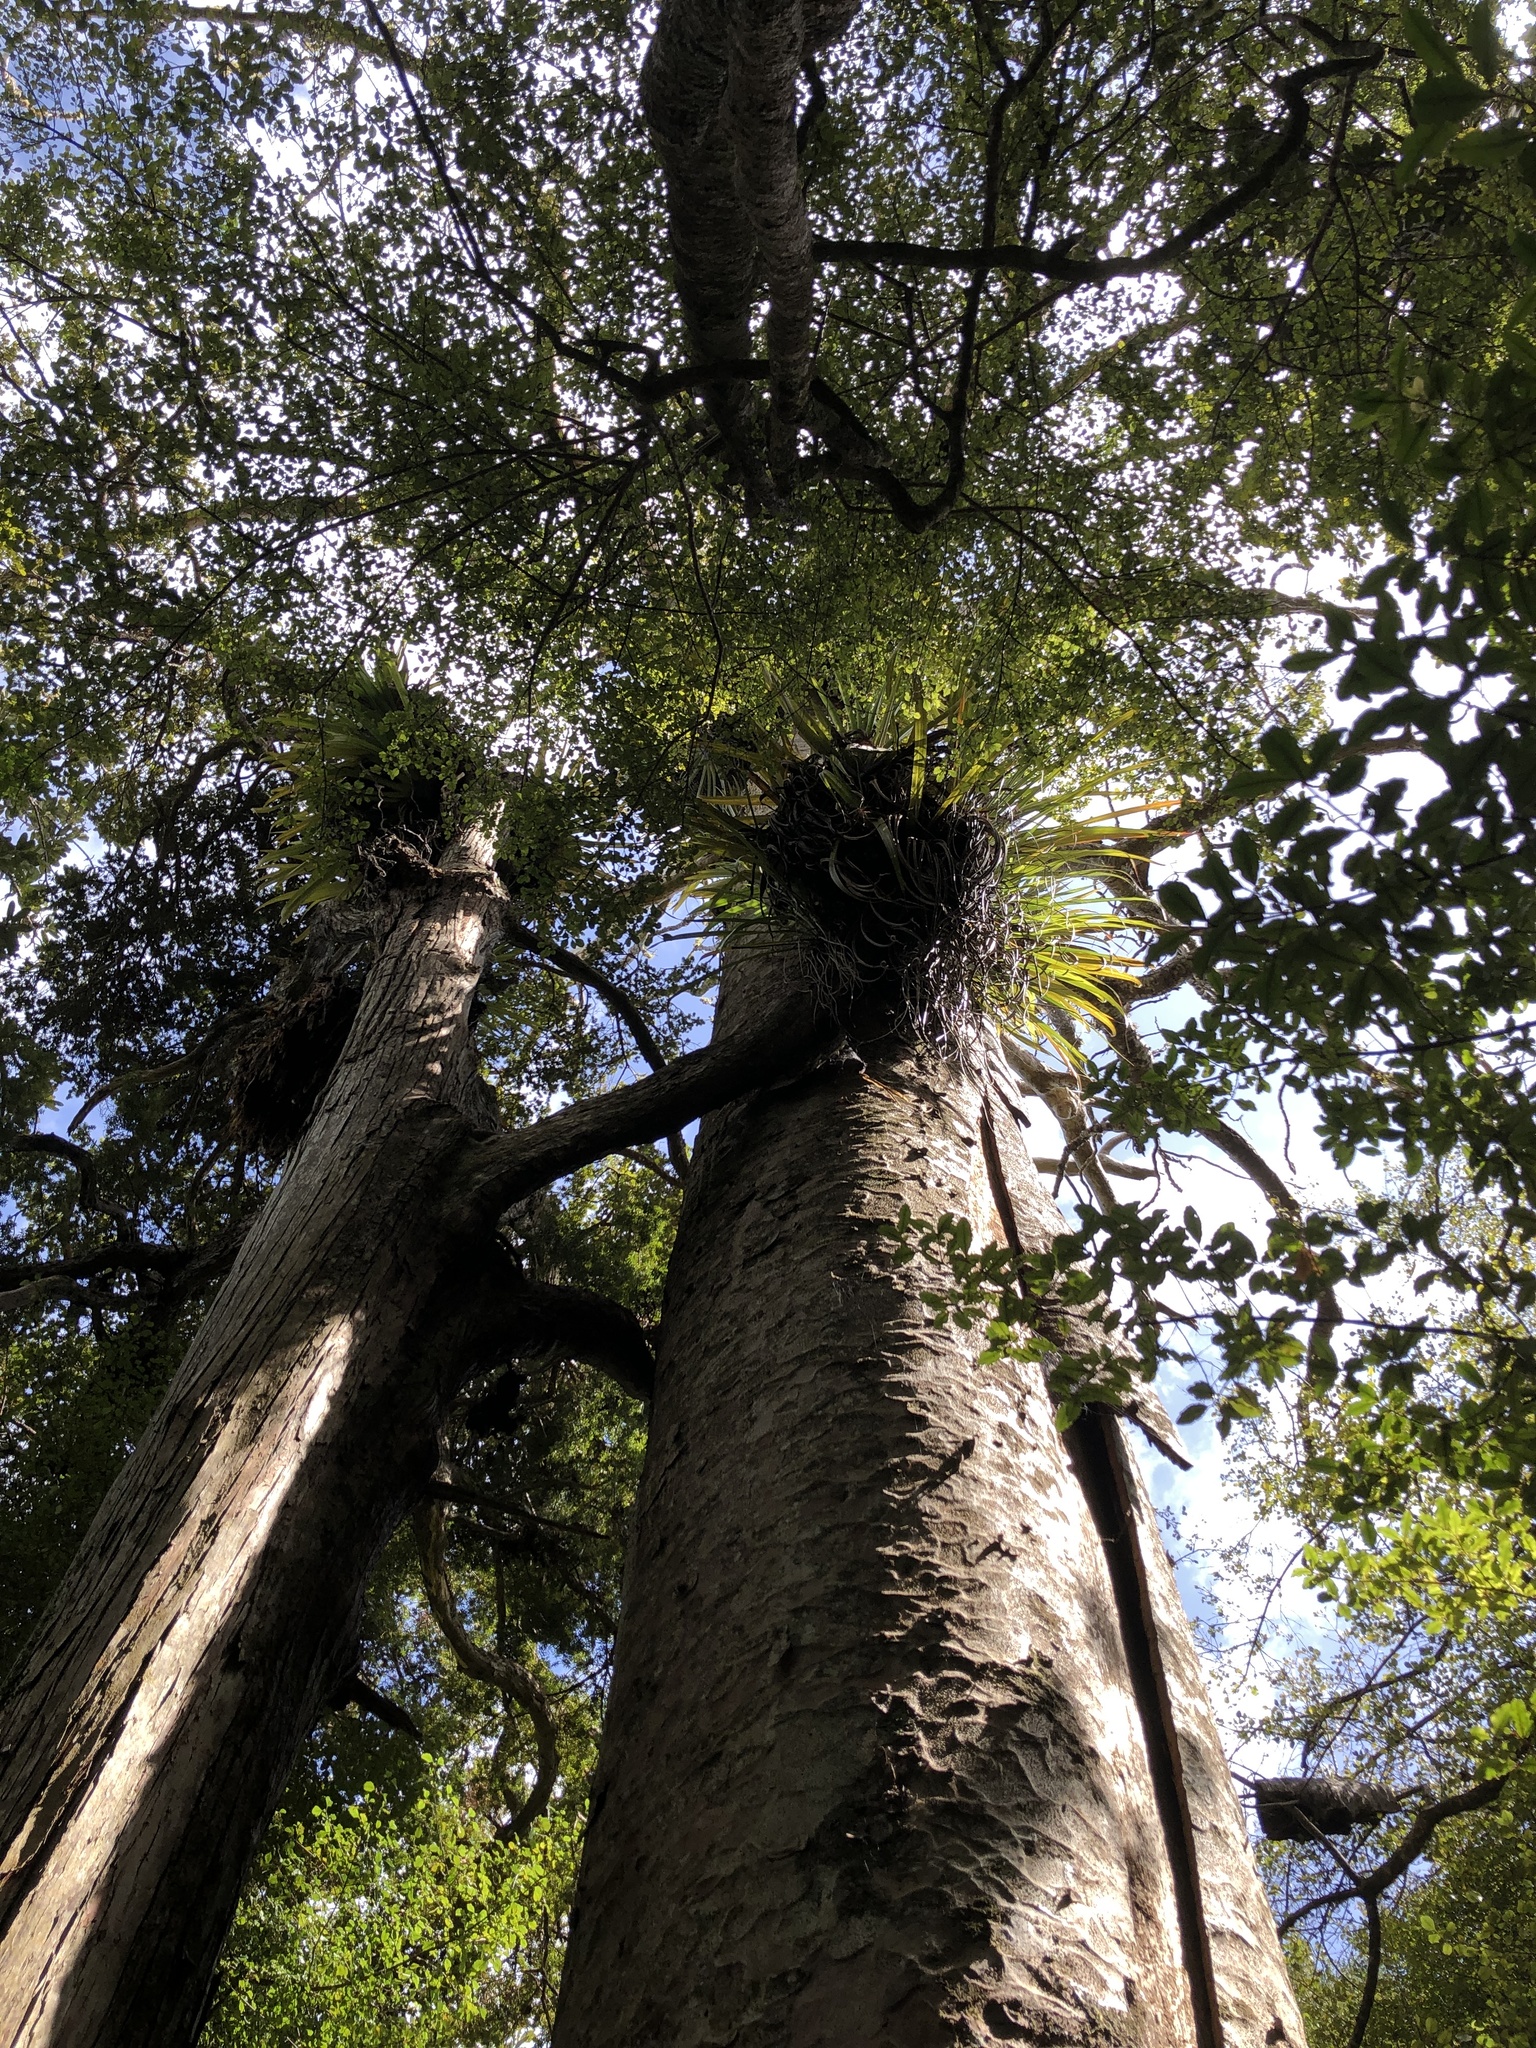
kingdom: Plantae
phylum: Tracheophyta
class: Pinopsida
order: Pinales
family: Araucariaceae
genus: Agathis
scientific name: Agathis australis
